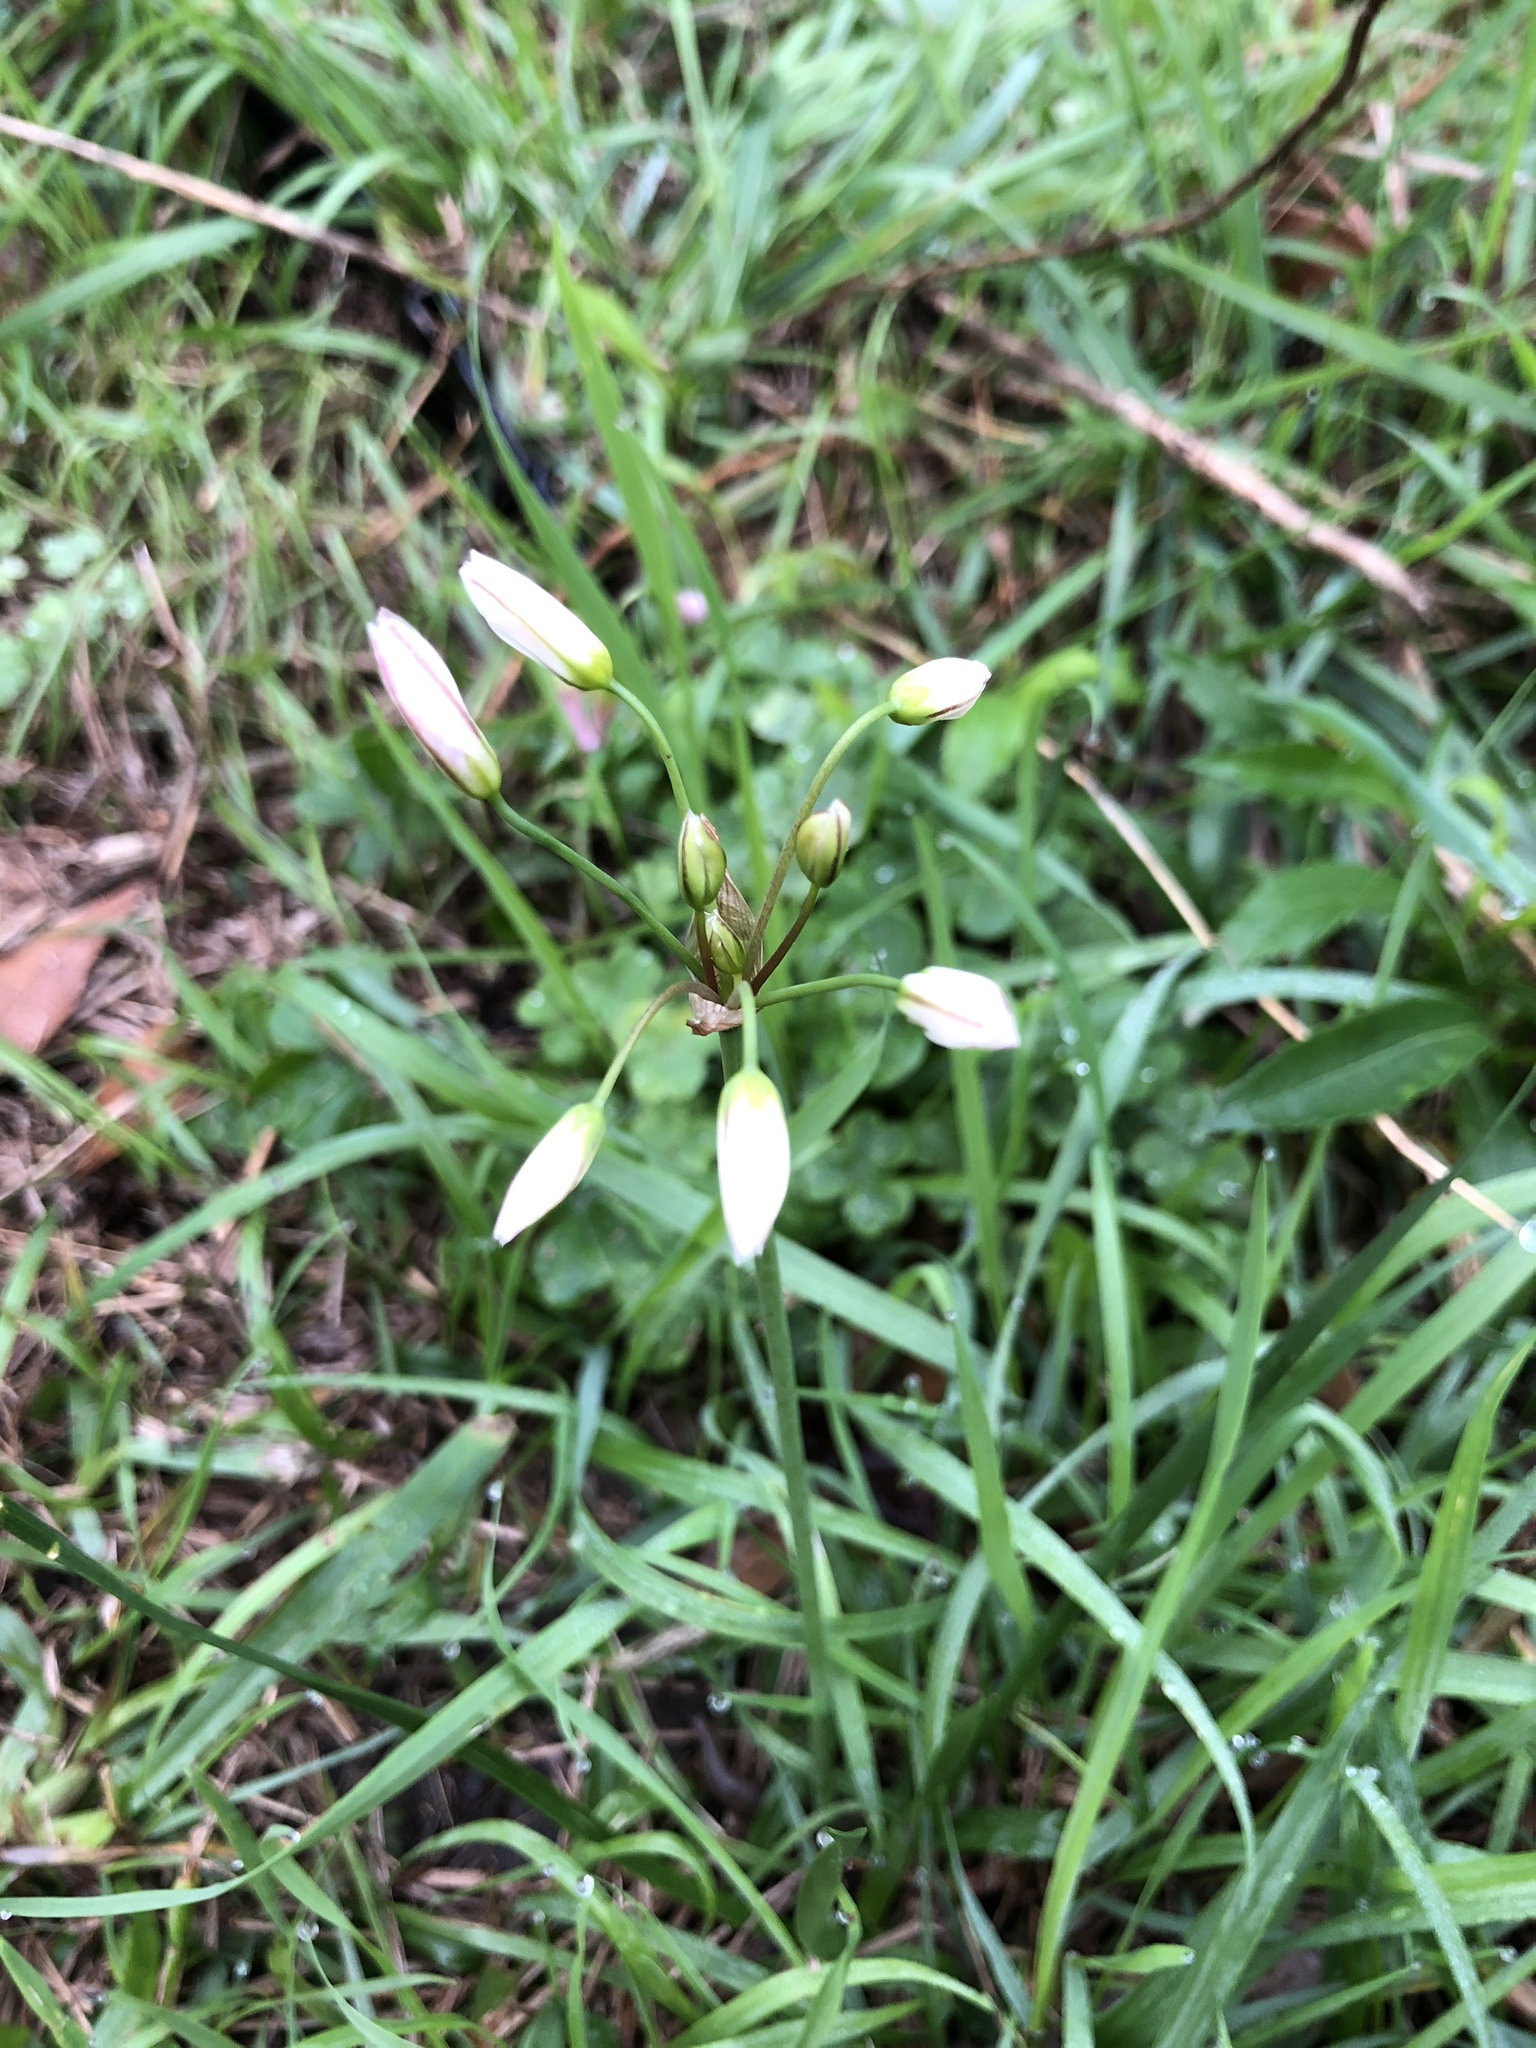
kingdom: Plantae
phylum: Tracheophyta
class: Liliopsida
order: Asparagales
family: Amaryllidaceae
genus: Nothoscordum
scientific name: Nothoscordum bivalve
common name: Crow-poison
